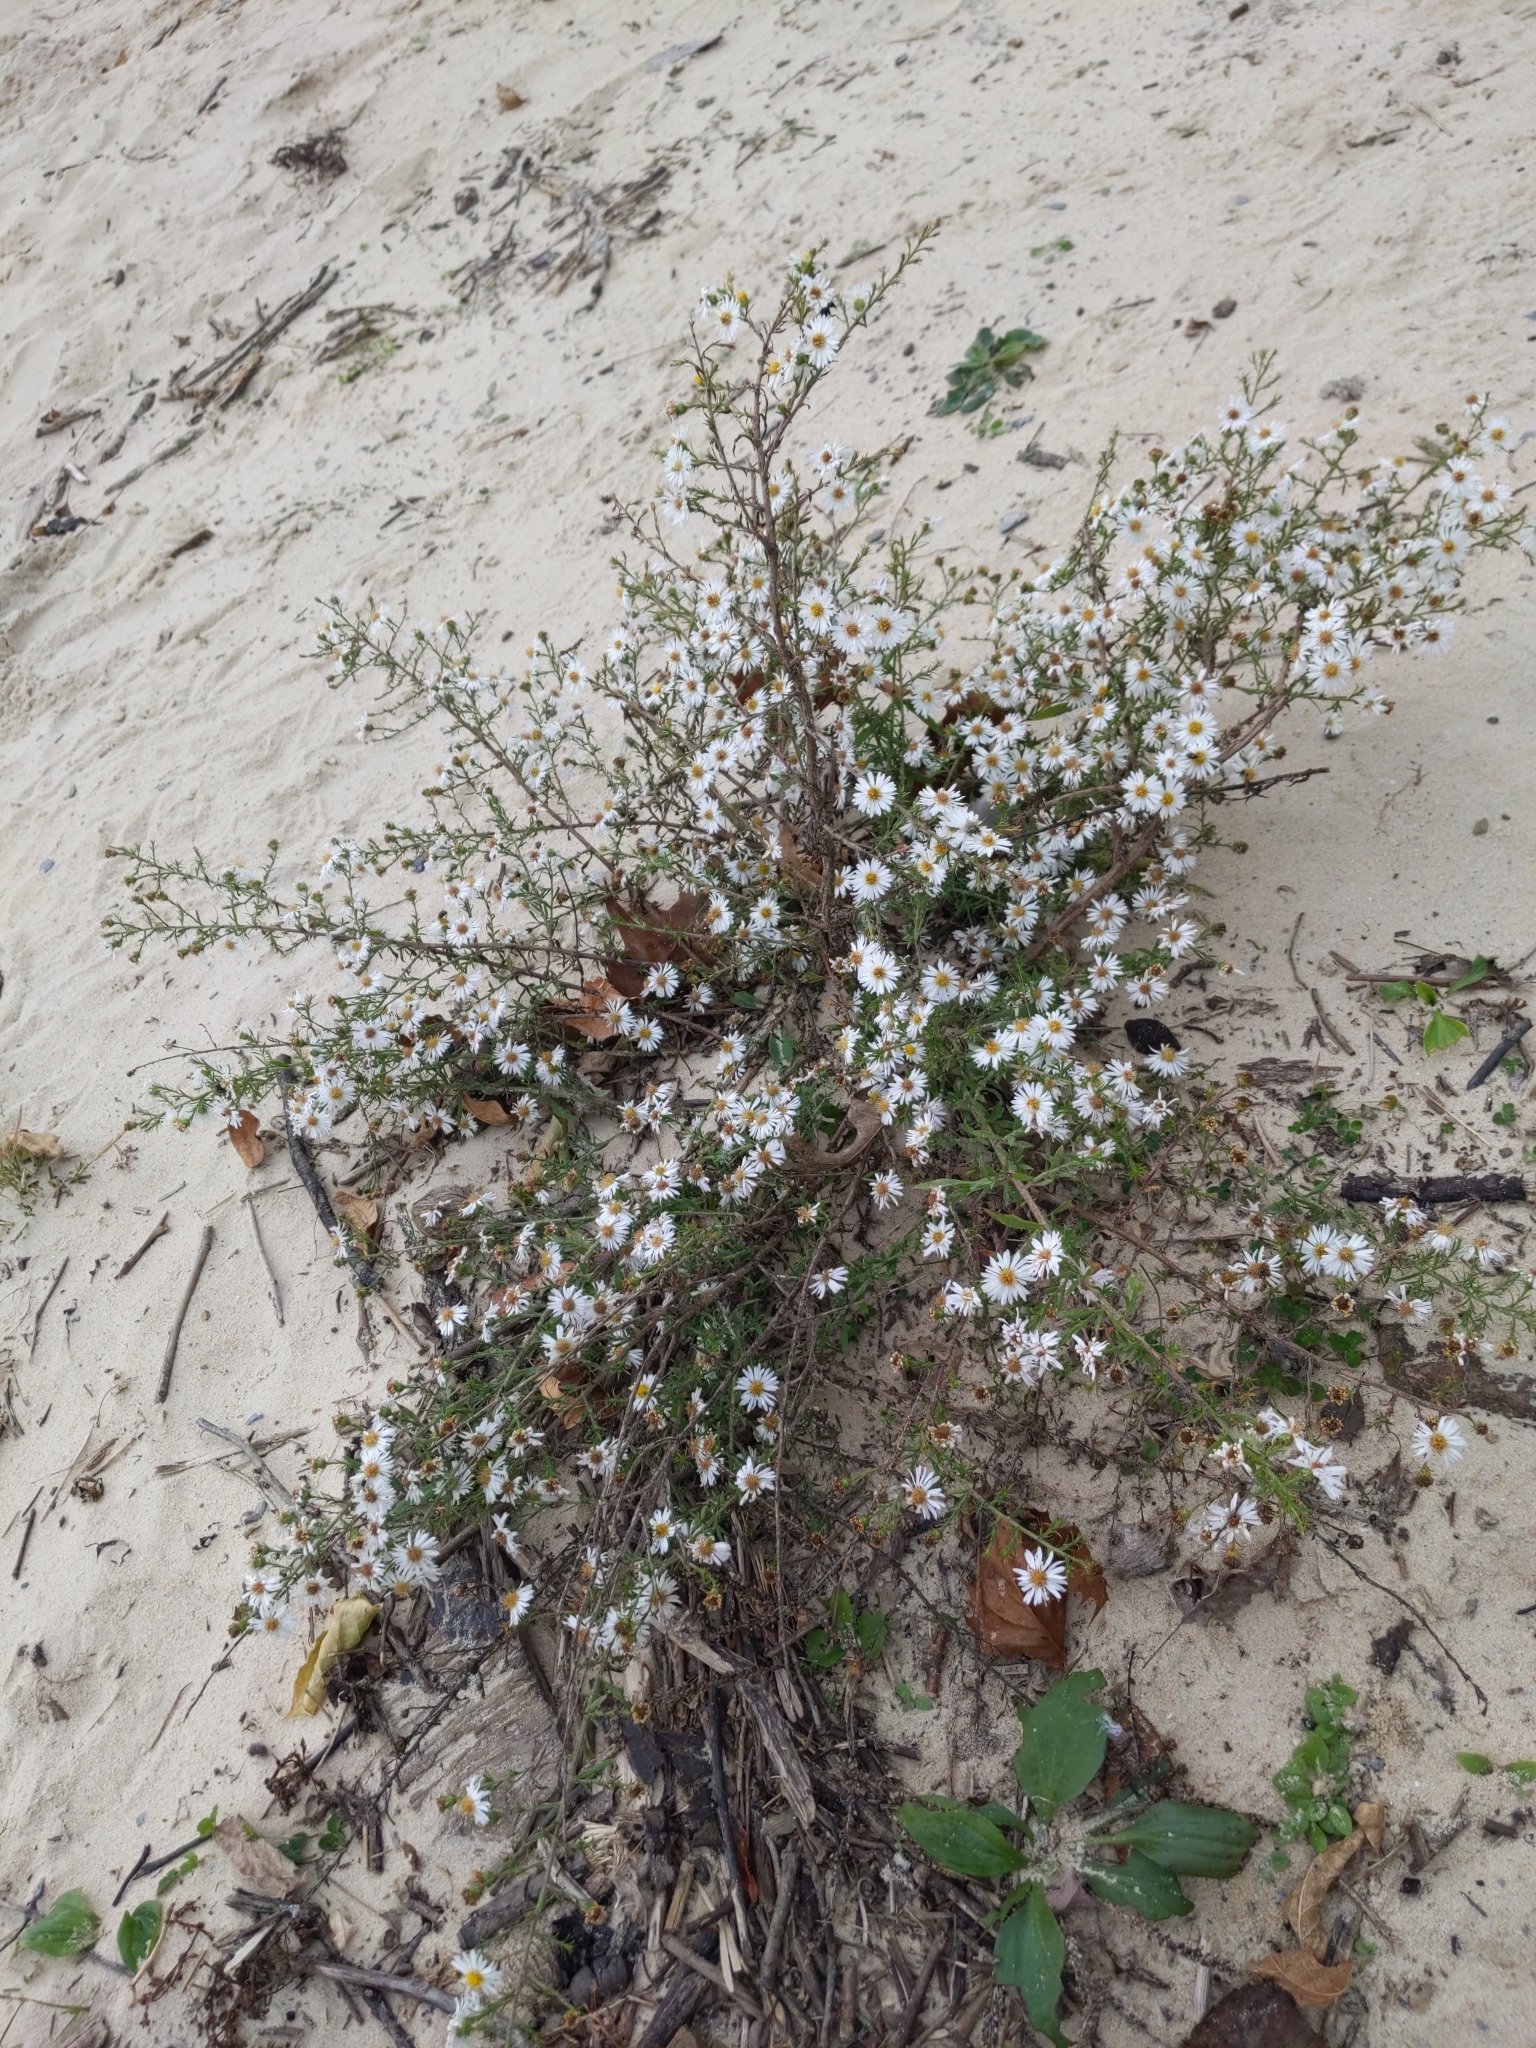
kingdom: Plantae
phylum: Tracheophyta
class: Magnoliopsida
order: Asterales
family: Asteraceae
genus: Symphyotrichum
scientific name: Symphyotrichum pilosum
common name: Awl aster
